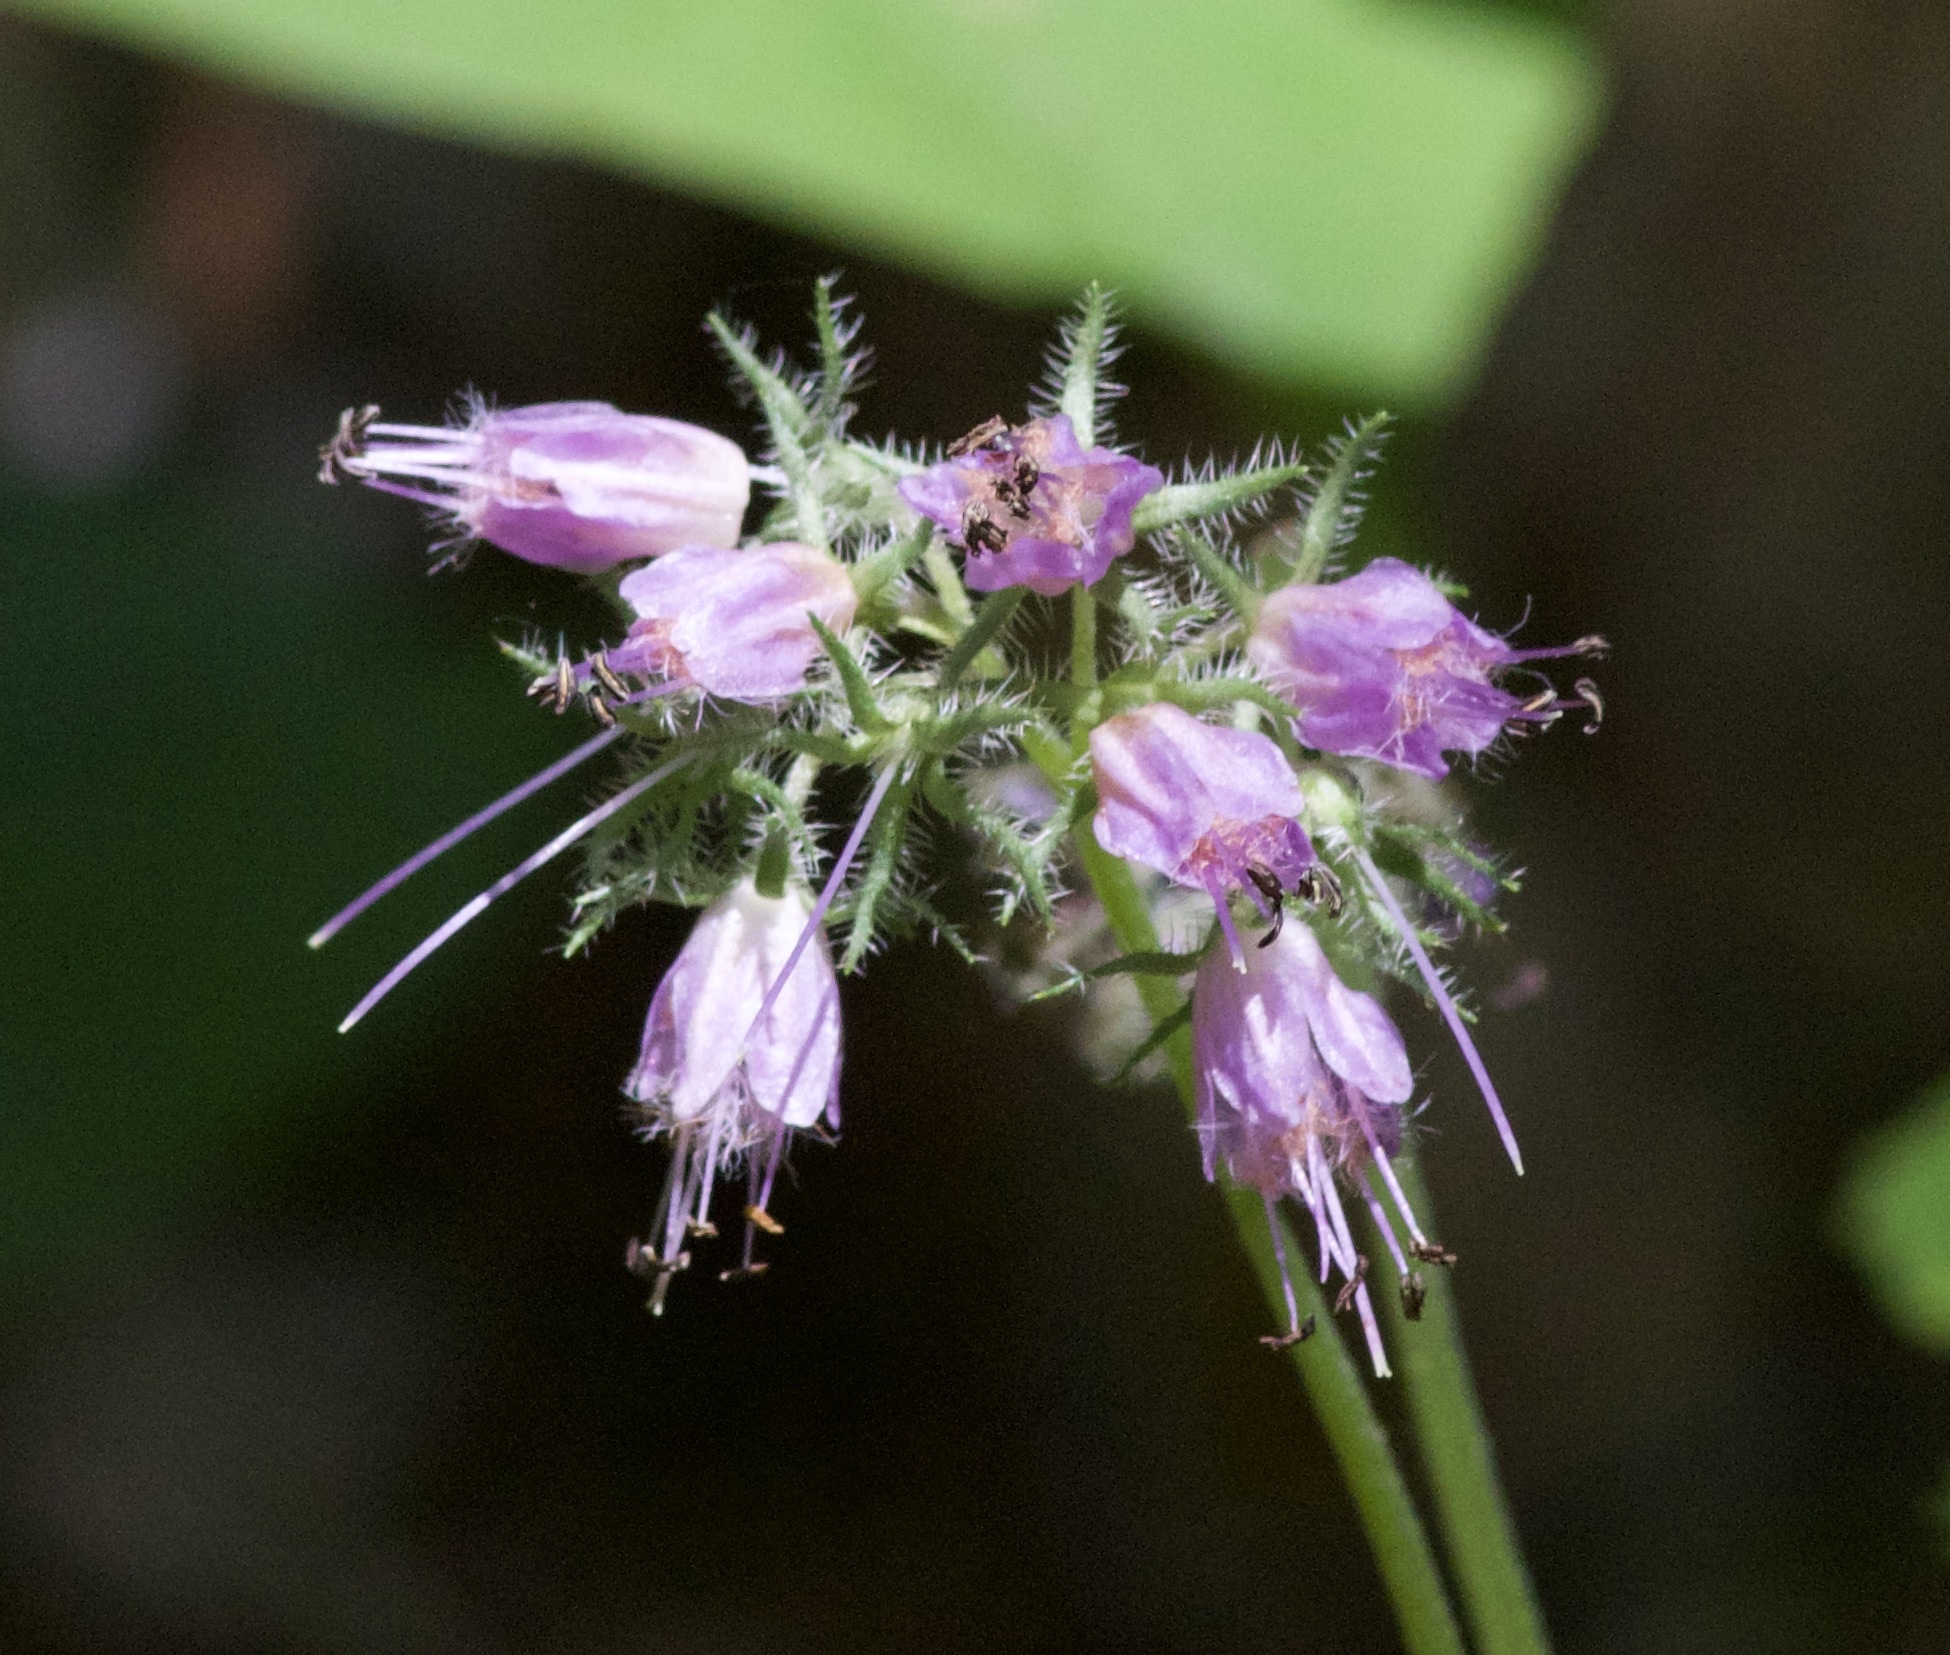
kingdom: Plantae
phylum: Tracheophyta
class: Magnoliopsida
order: Boraginales
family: Hydrophyllaceae
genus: Hydrophyllum
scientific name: Hydrophyllum virginianum
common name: Virginia waterleaf
